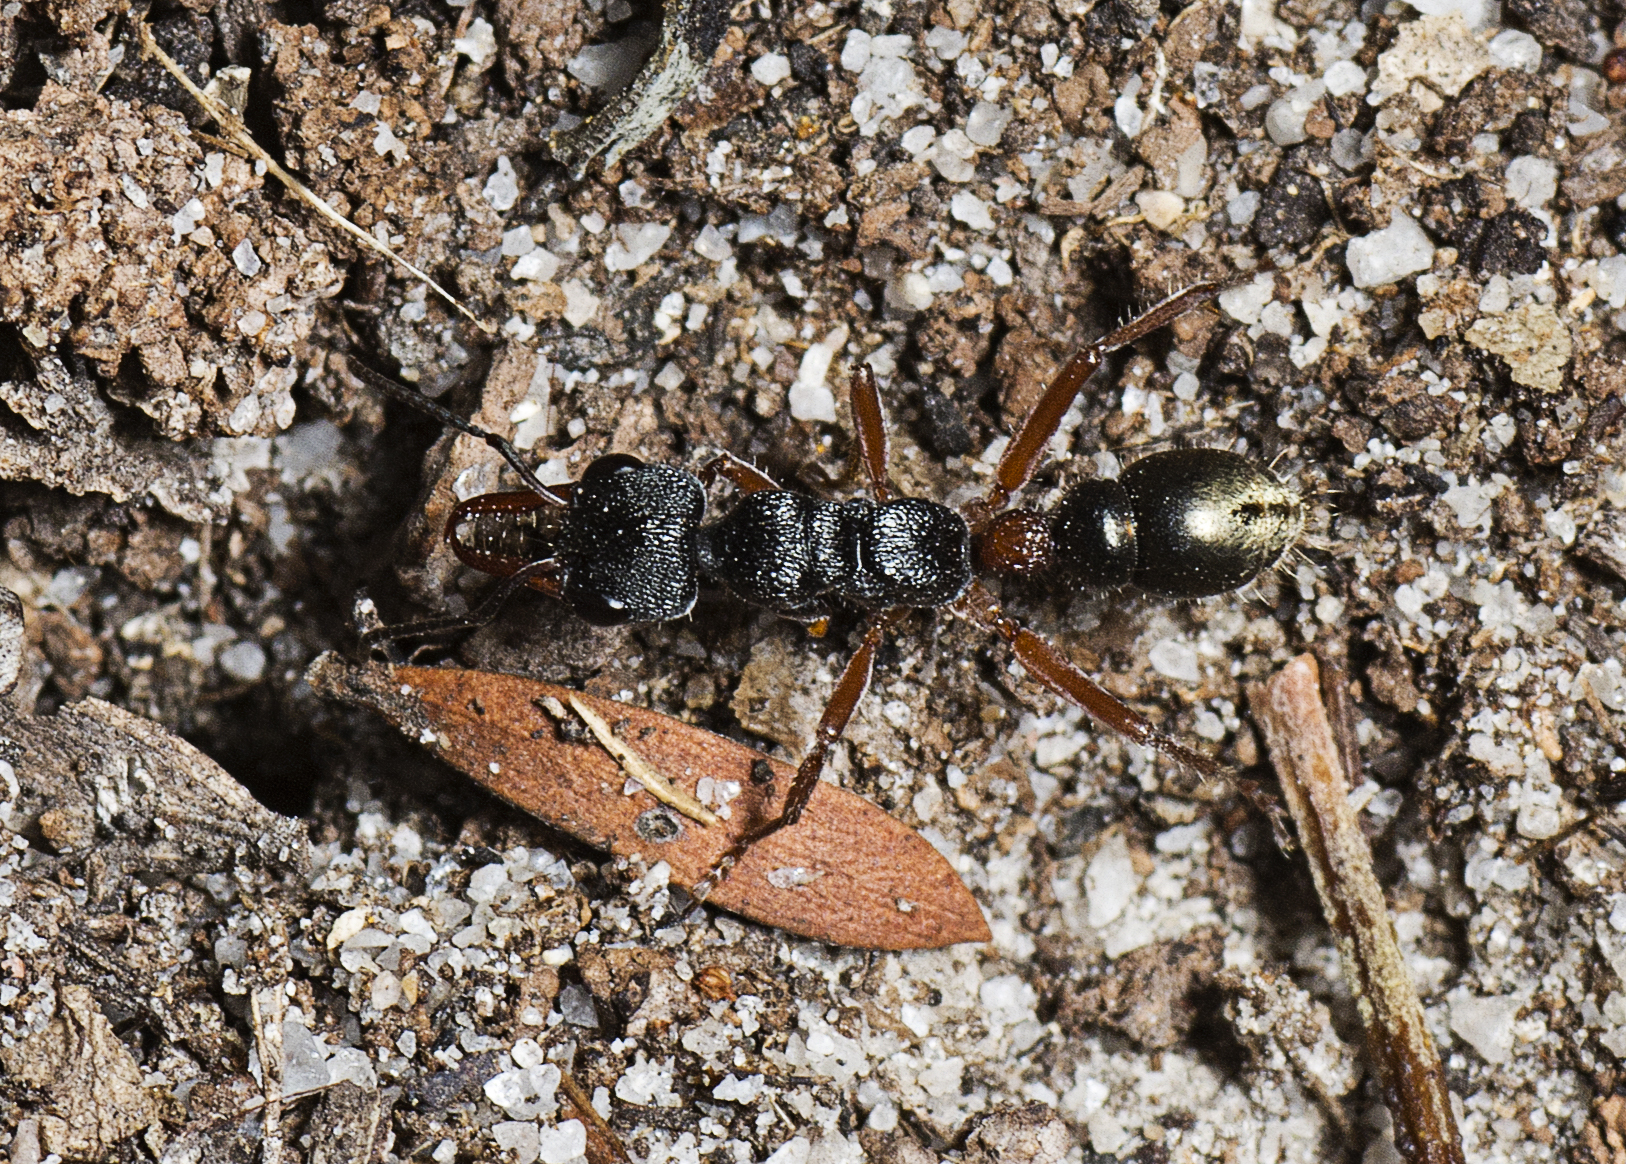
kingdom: Animalia
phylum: Arthropoda
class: Insecta
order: Hymenoptera
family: Formicidae
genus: Myrmecia
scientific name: Myrmecia chrysogaster
